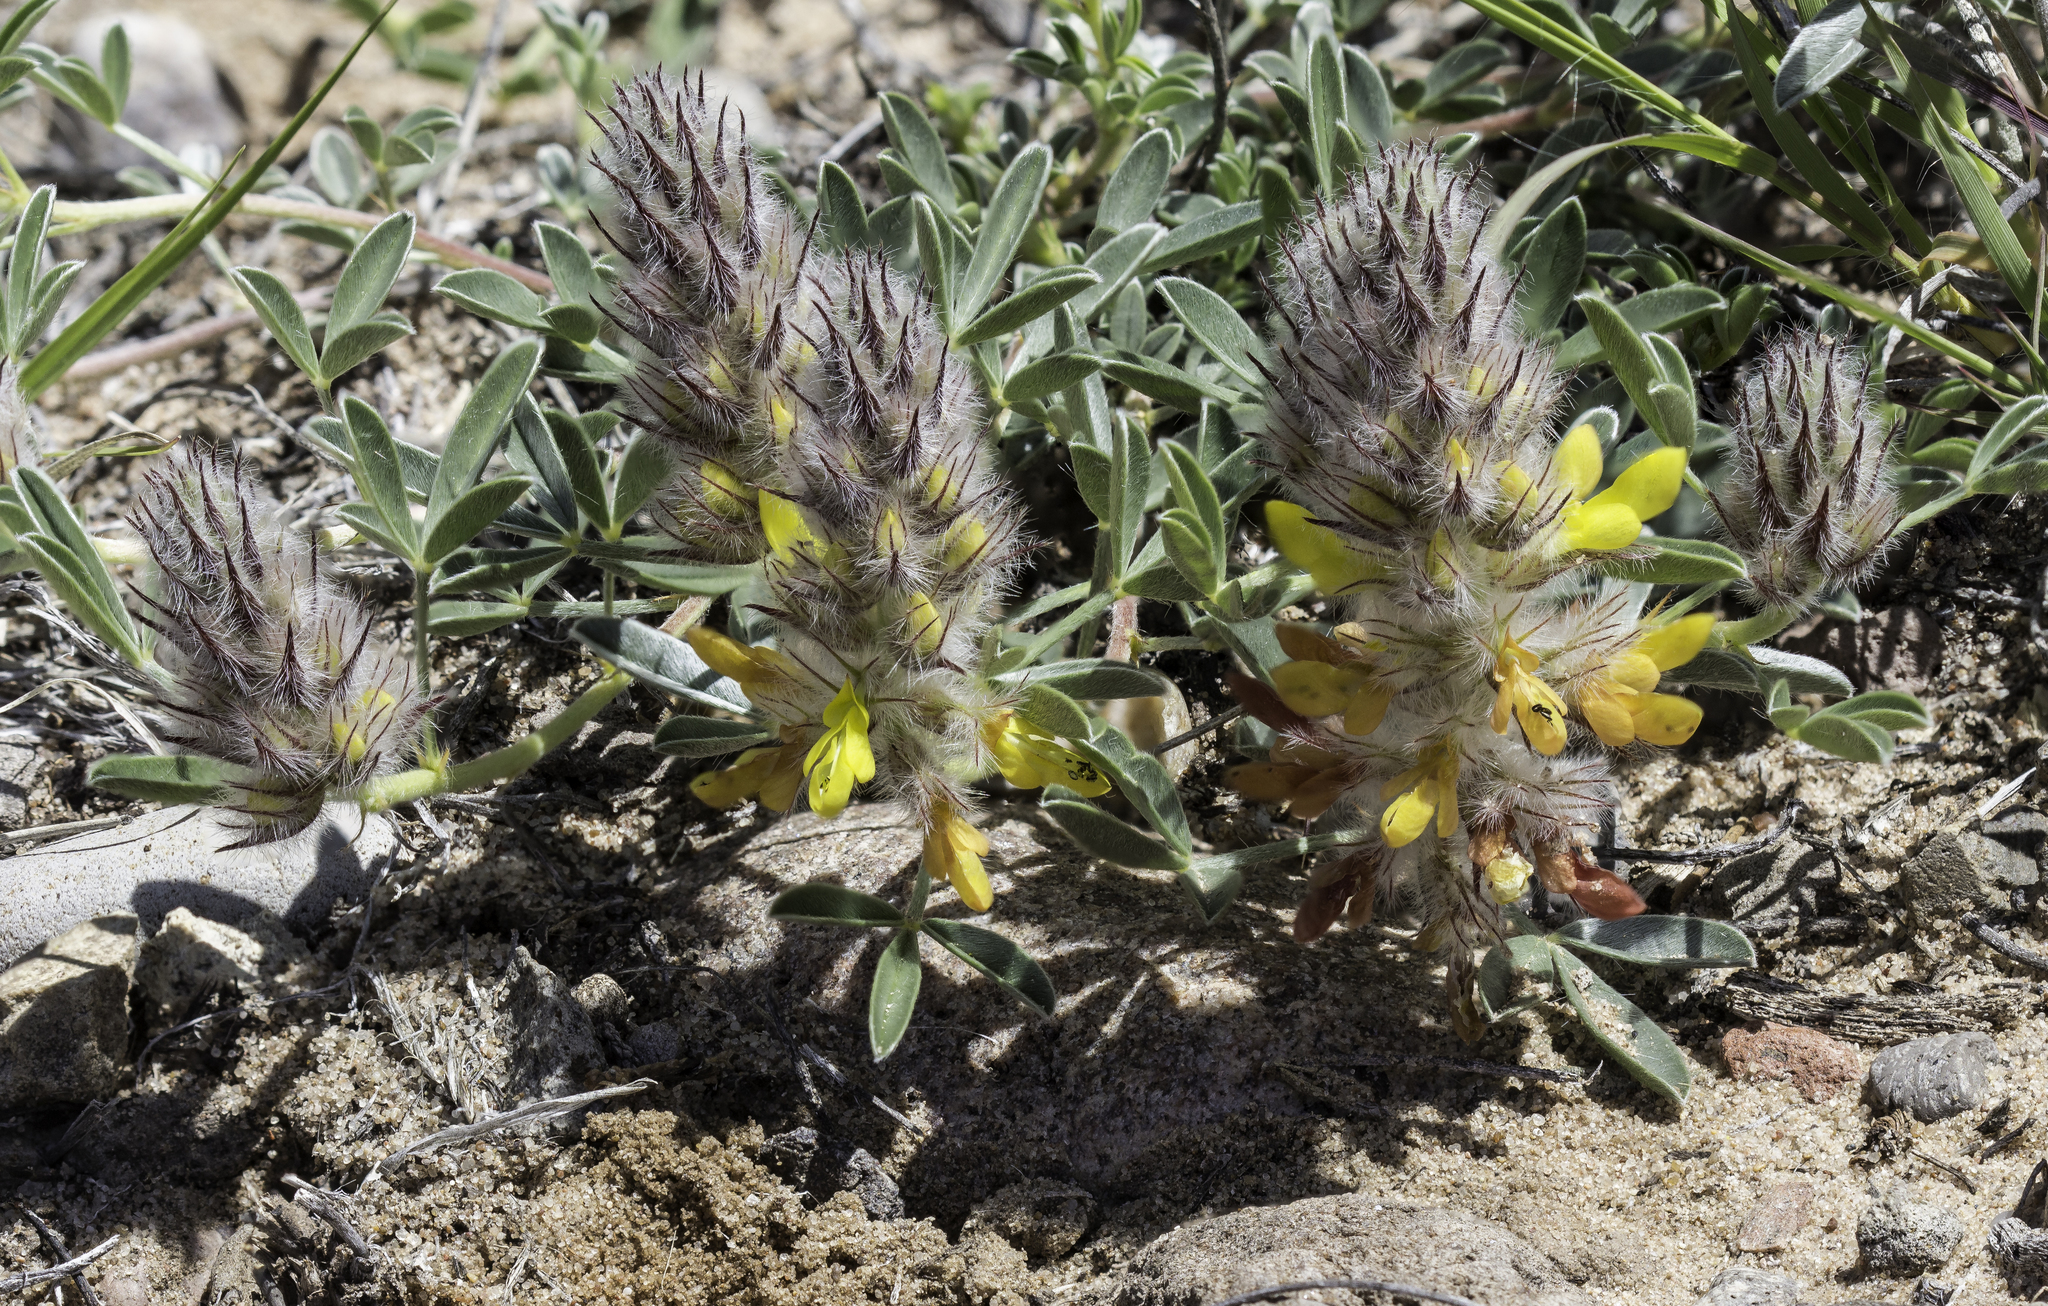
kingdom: Plantae
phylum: Tracheophyta
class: Magnoliopsida
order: Fabales
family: Fabaceae
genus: Dalea
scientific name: Dalea jamesii
